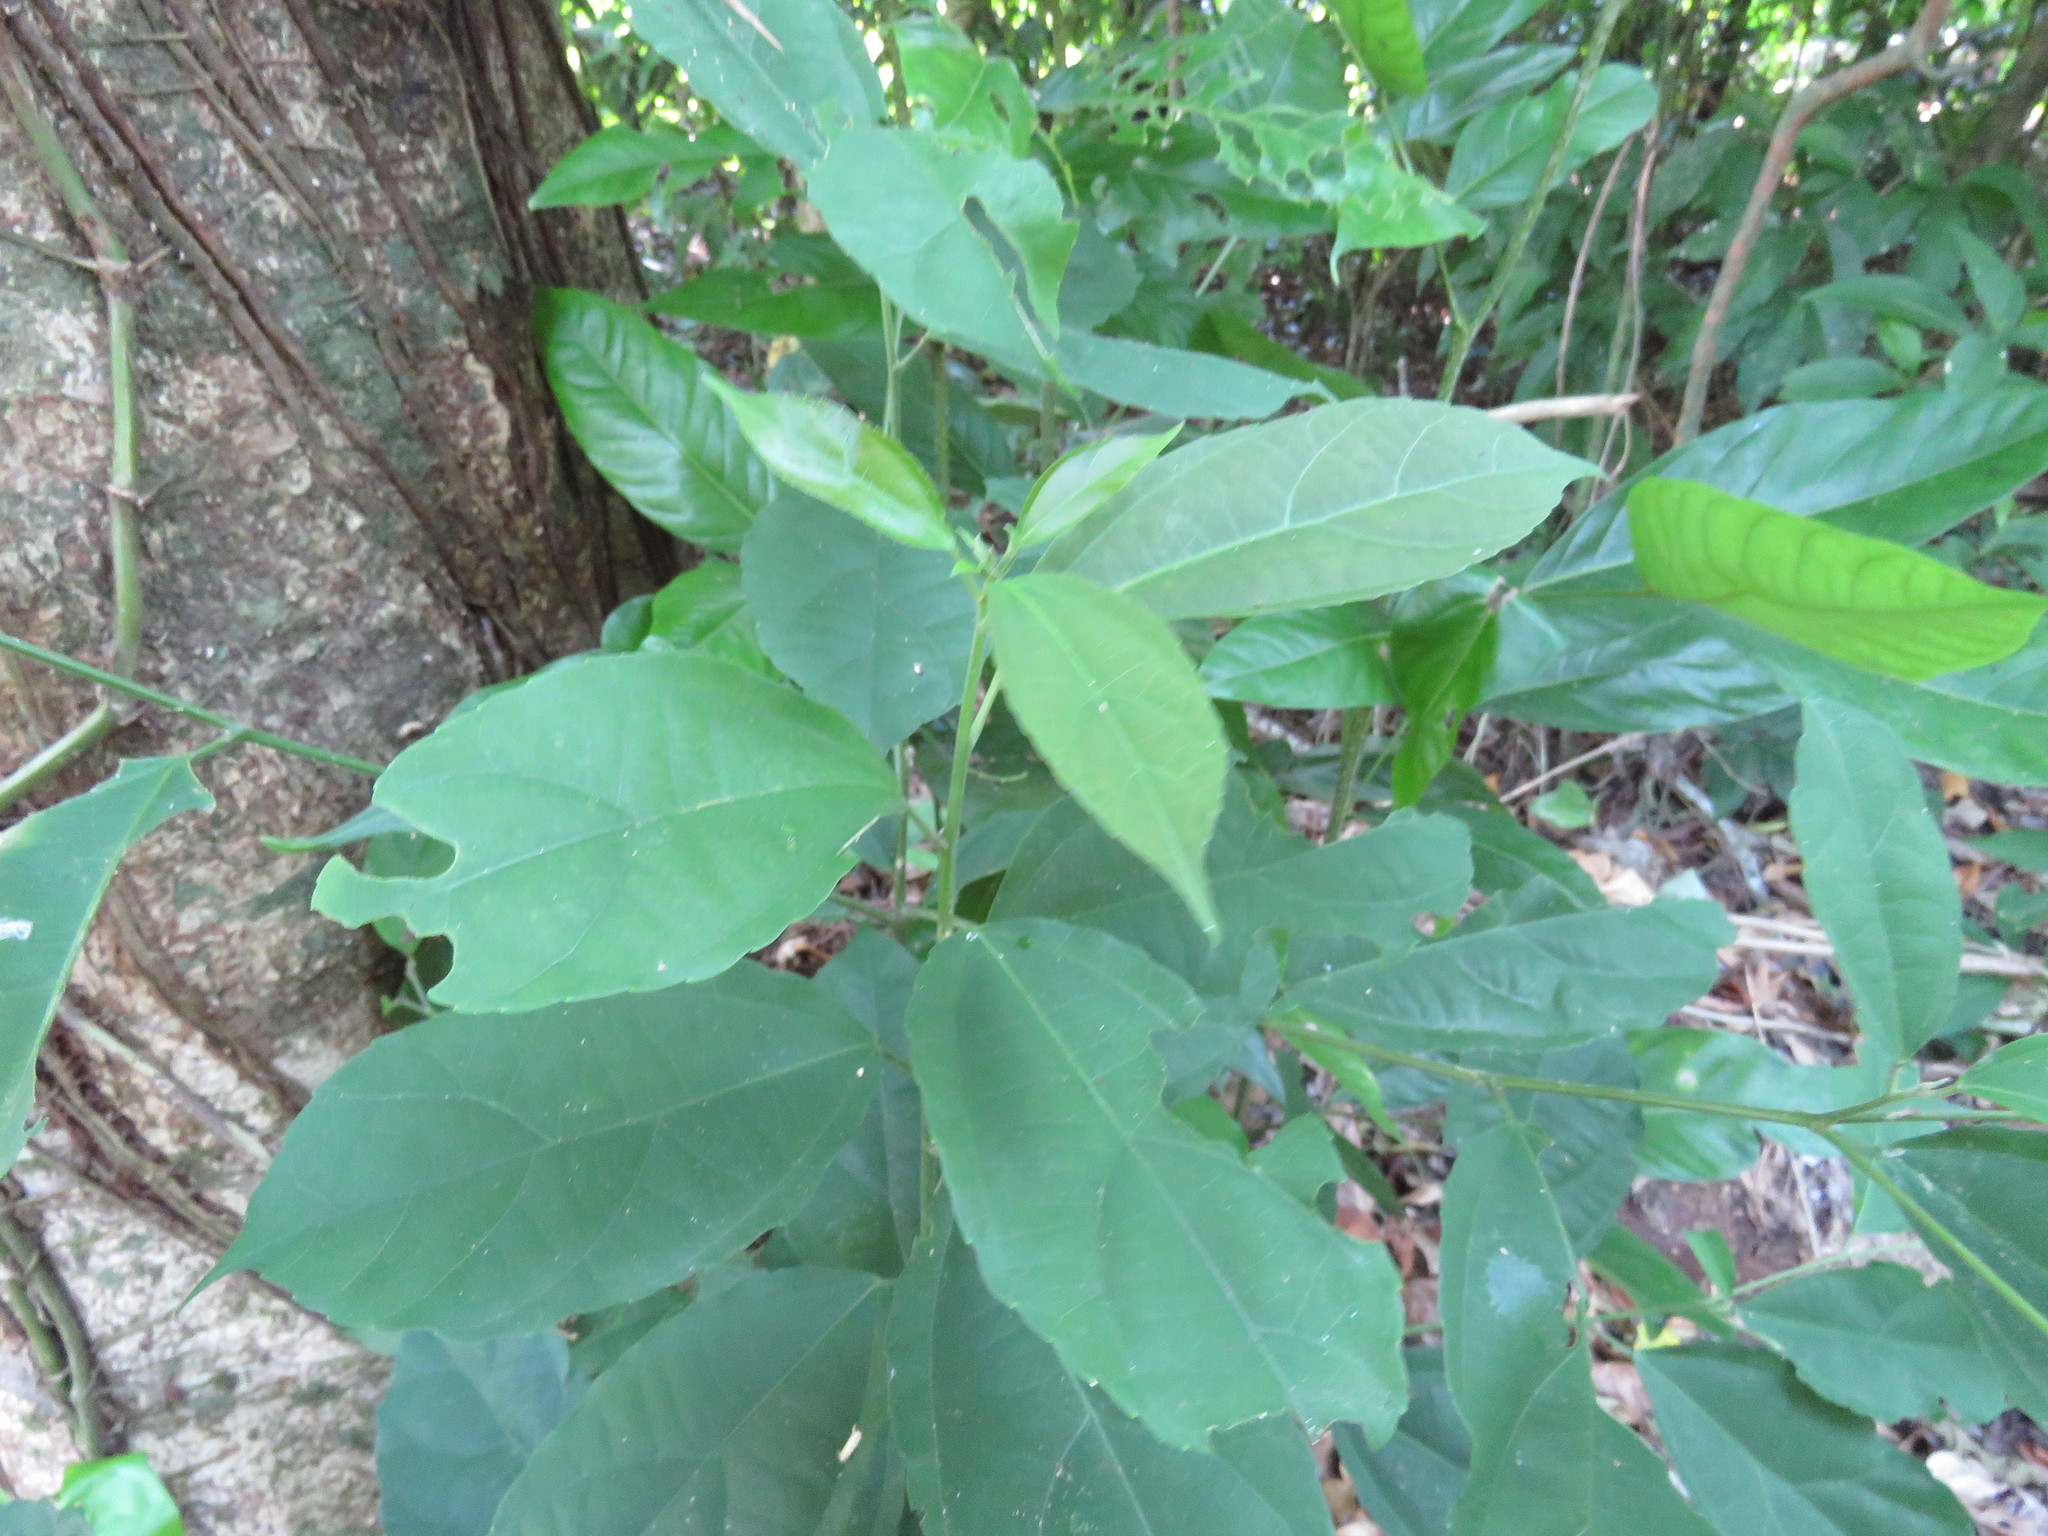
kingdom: Plantae
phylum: Tracheophyta
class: Magnoliopsida
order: Malpighiales
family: Salicaceae
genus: Pleuranthodendron
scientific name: Pleuranthodendron lindenii
